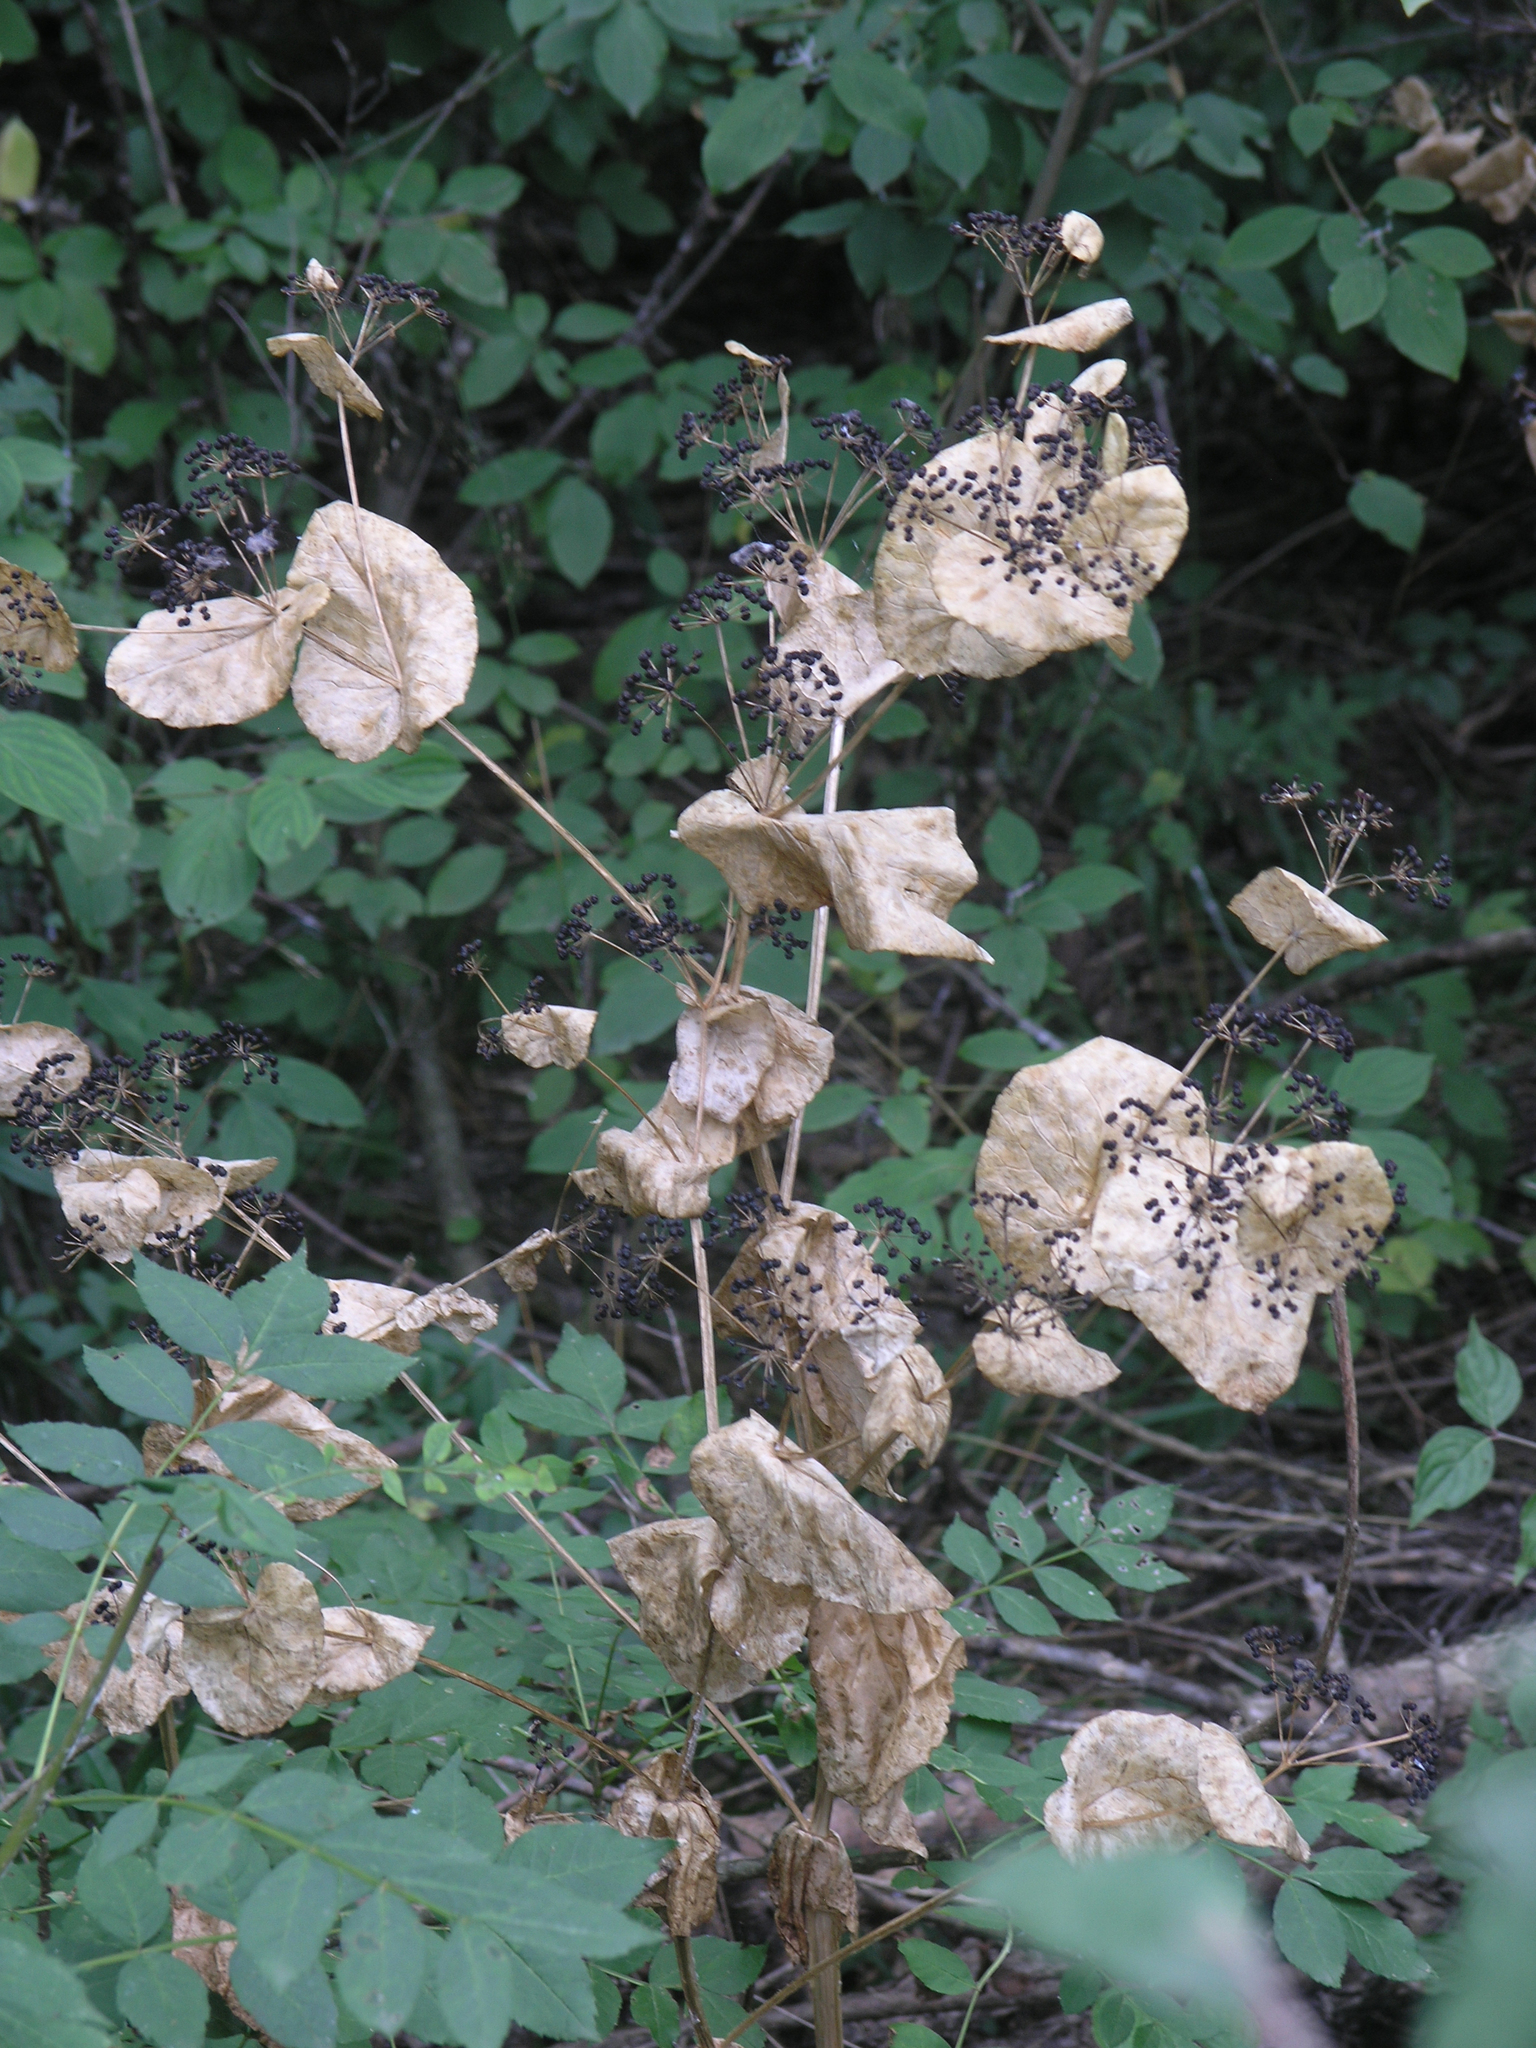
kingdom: Plantae
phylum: Tracheophyta
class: Magnoliopsida
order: Apiales
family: Apiaceae
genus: Smyrnium
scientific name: Smyrnium perfoliatum
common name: Perfoliate alexanders
